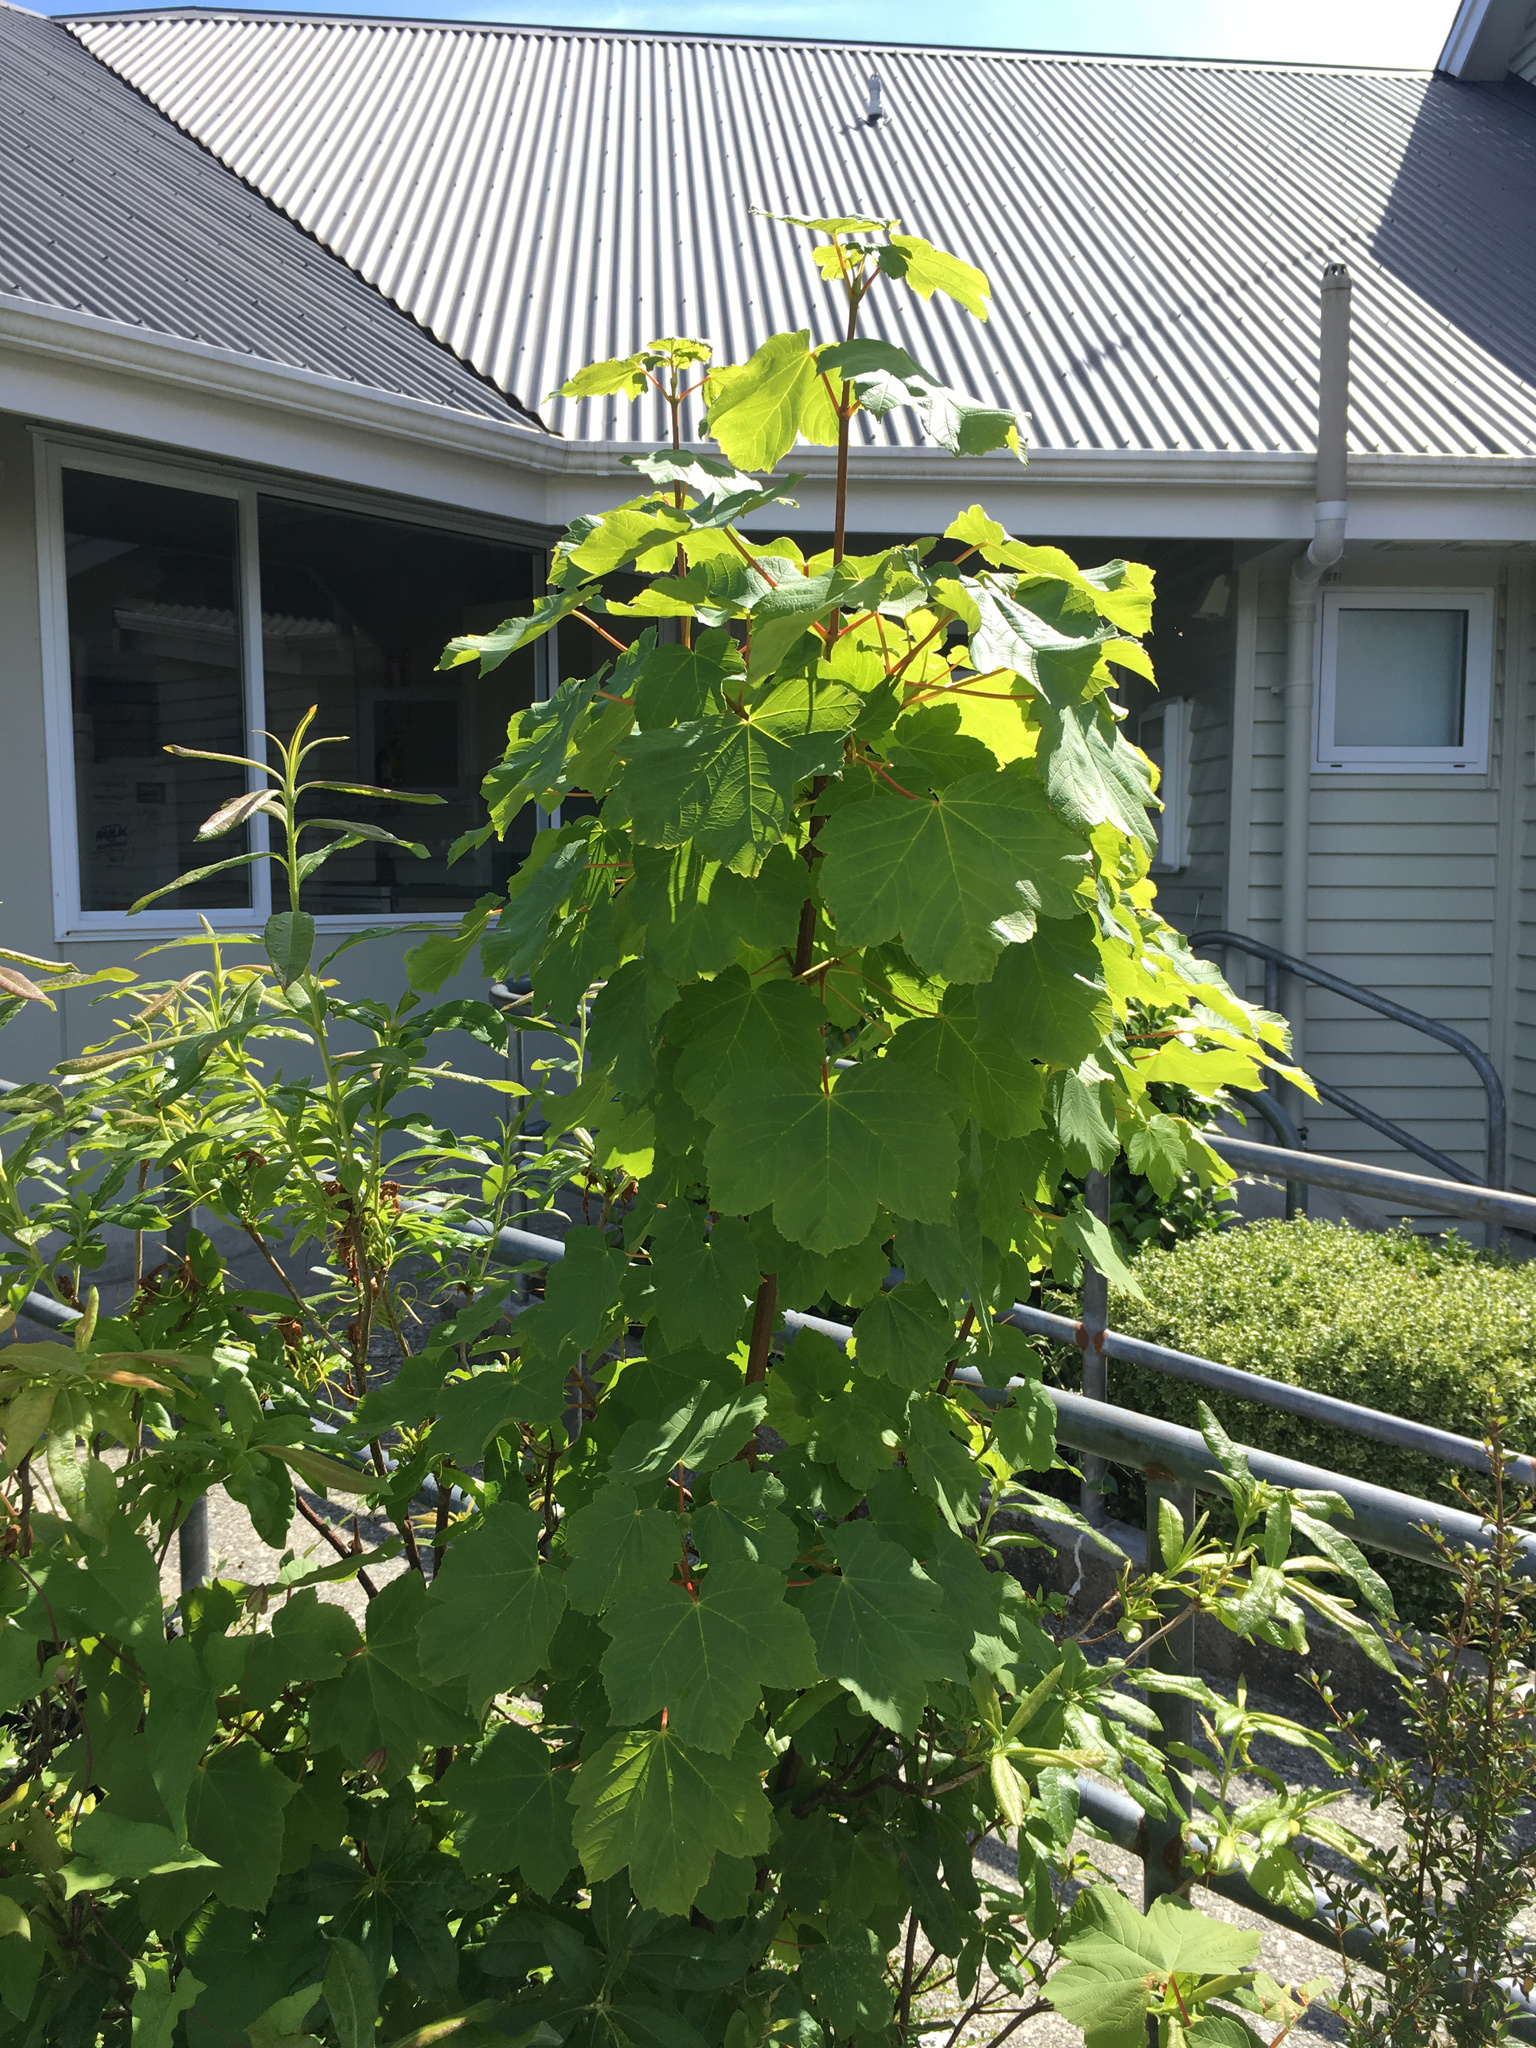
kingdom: Plantae
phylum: Tracheophyta
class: Magnoliopsida
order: Sapindales
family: Sapindaceae
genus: Acer
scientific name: Acer pseudoplatanus
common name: Sycamore
